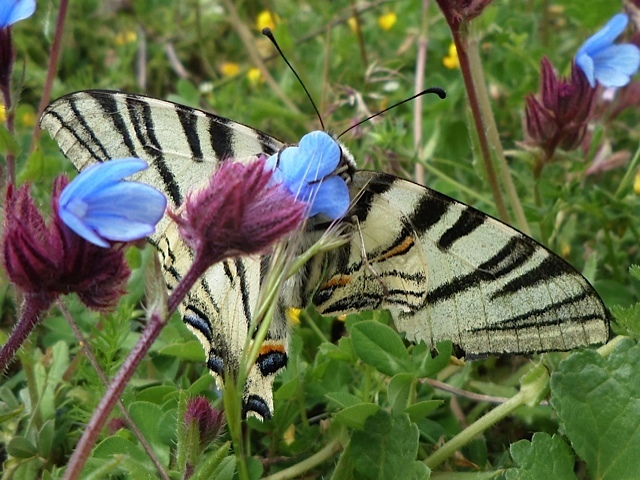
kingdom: Animalia
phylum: Arthropoda
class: Insecta
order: Lepidoptera
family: Papilionidae
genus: Iphiclides
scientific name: Iphiclides podalirius
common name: Scarce swallowtail
